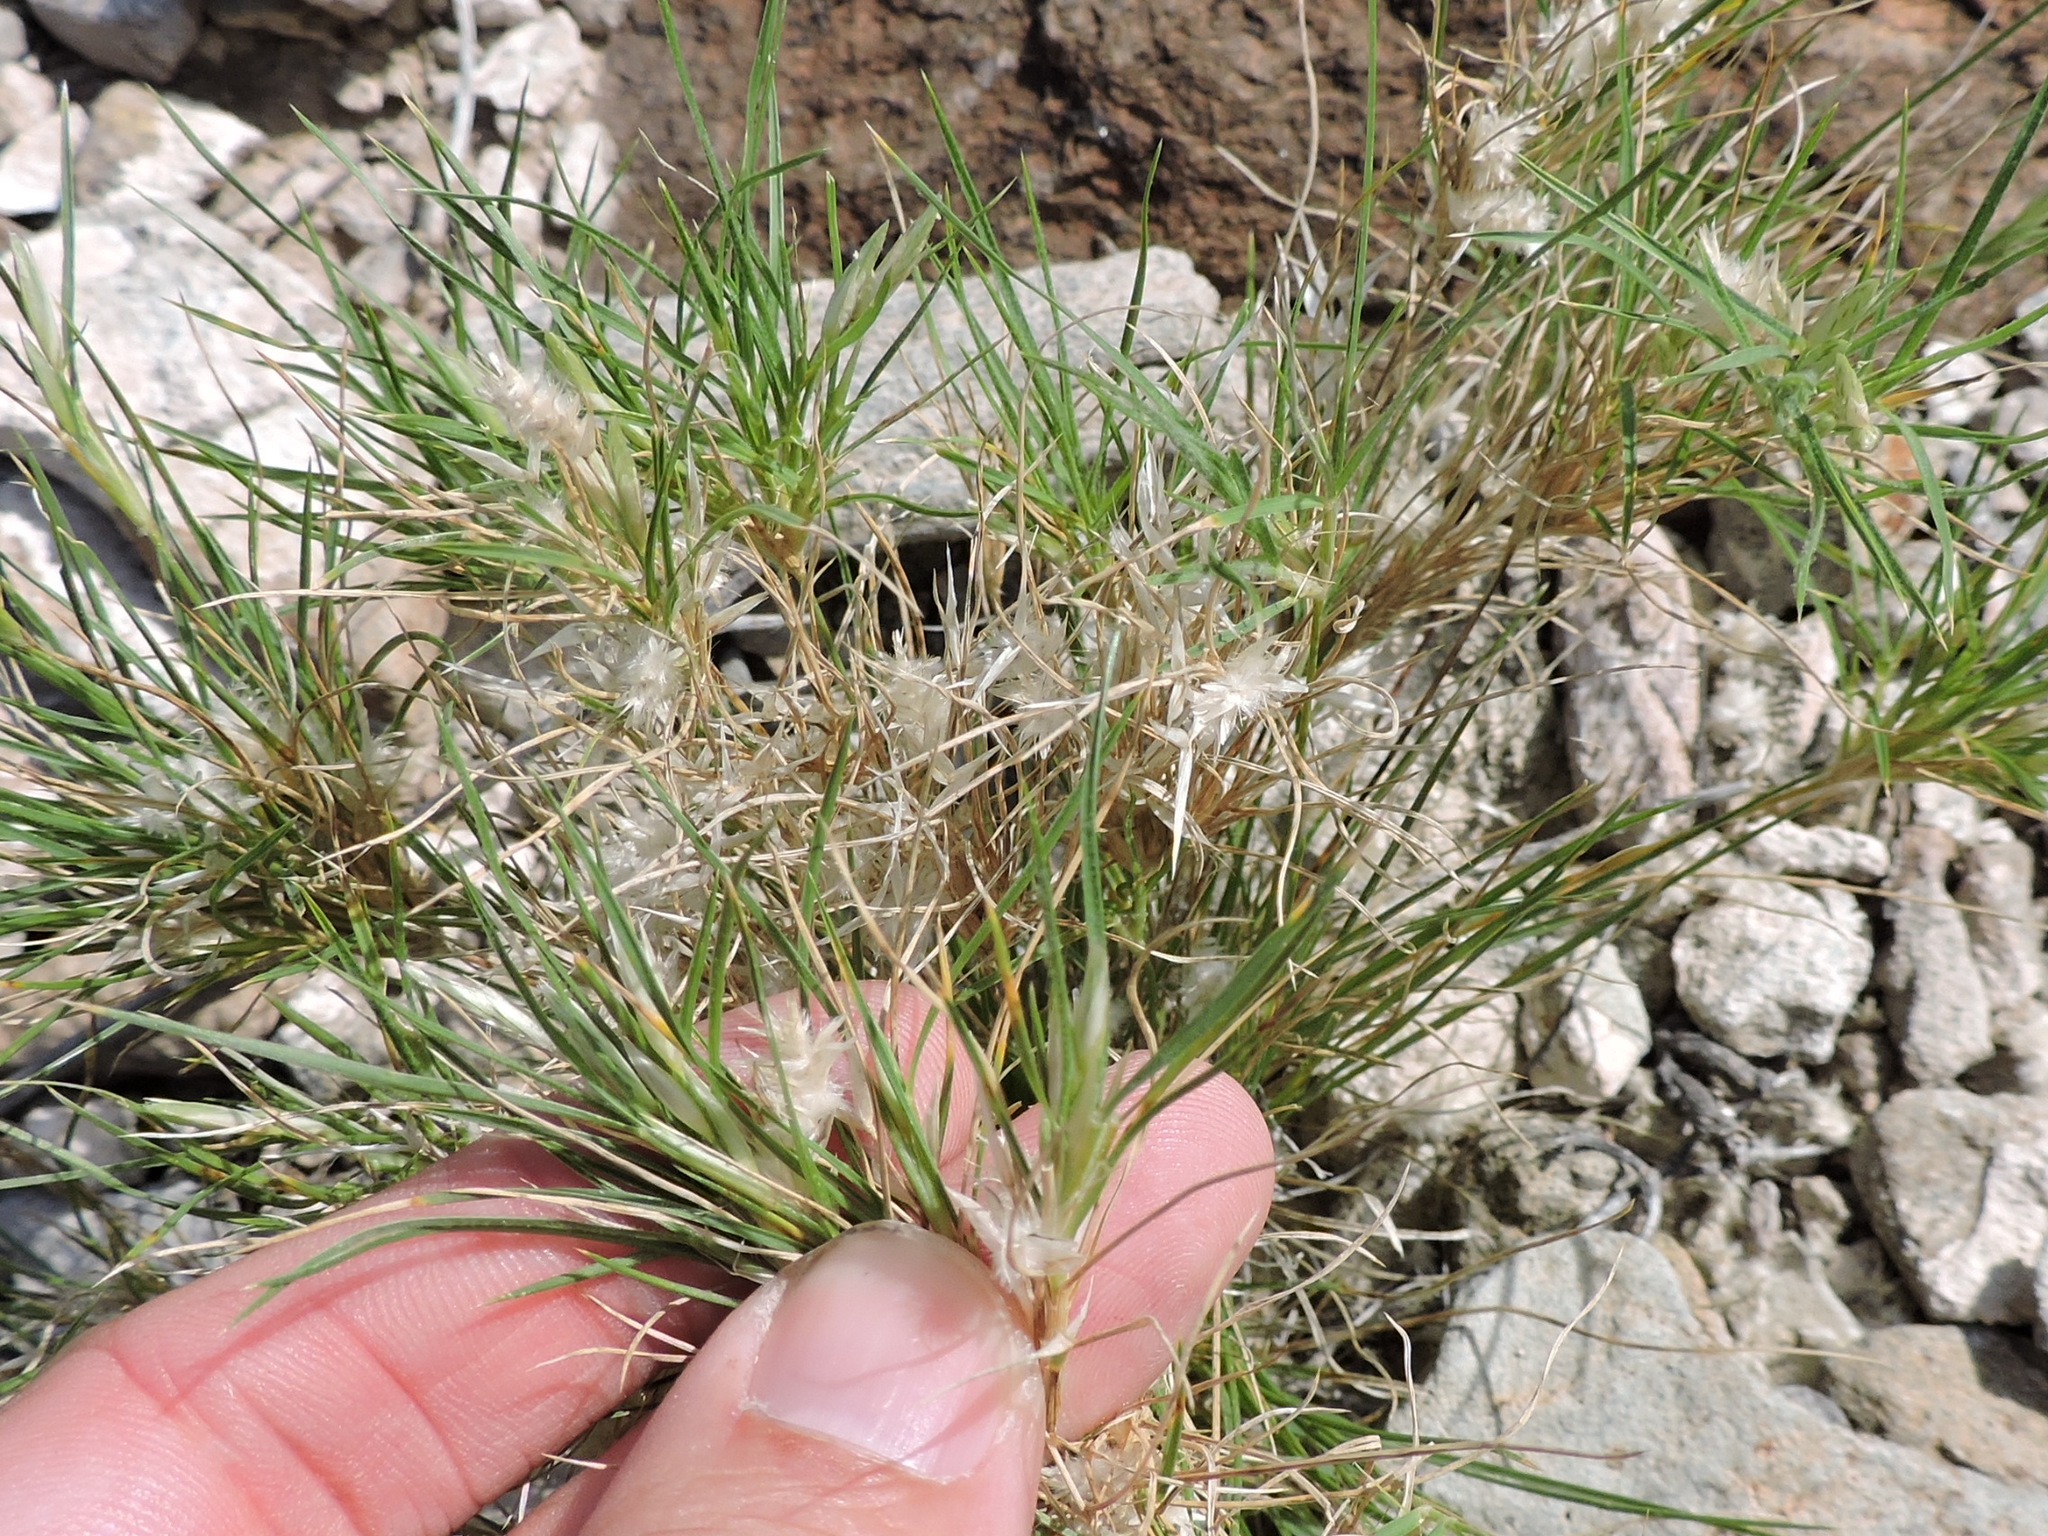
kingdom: Plantae
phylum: Tracheophyta
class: Liliopsida
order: Poales
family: Poaceae
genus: Dasyochloa
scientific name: Dasyochloa pulchella
